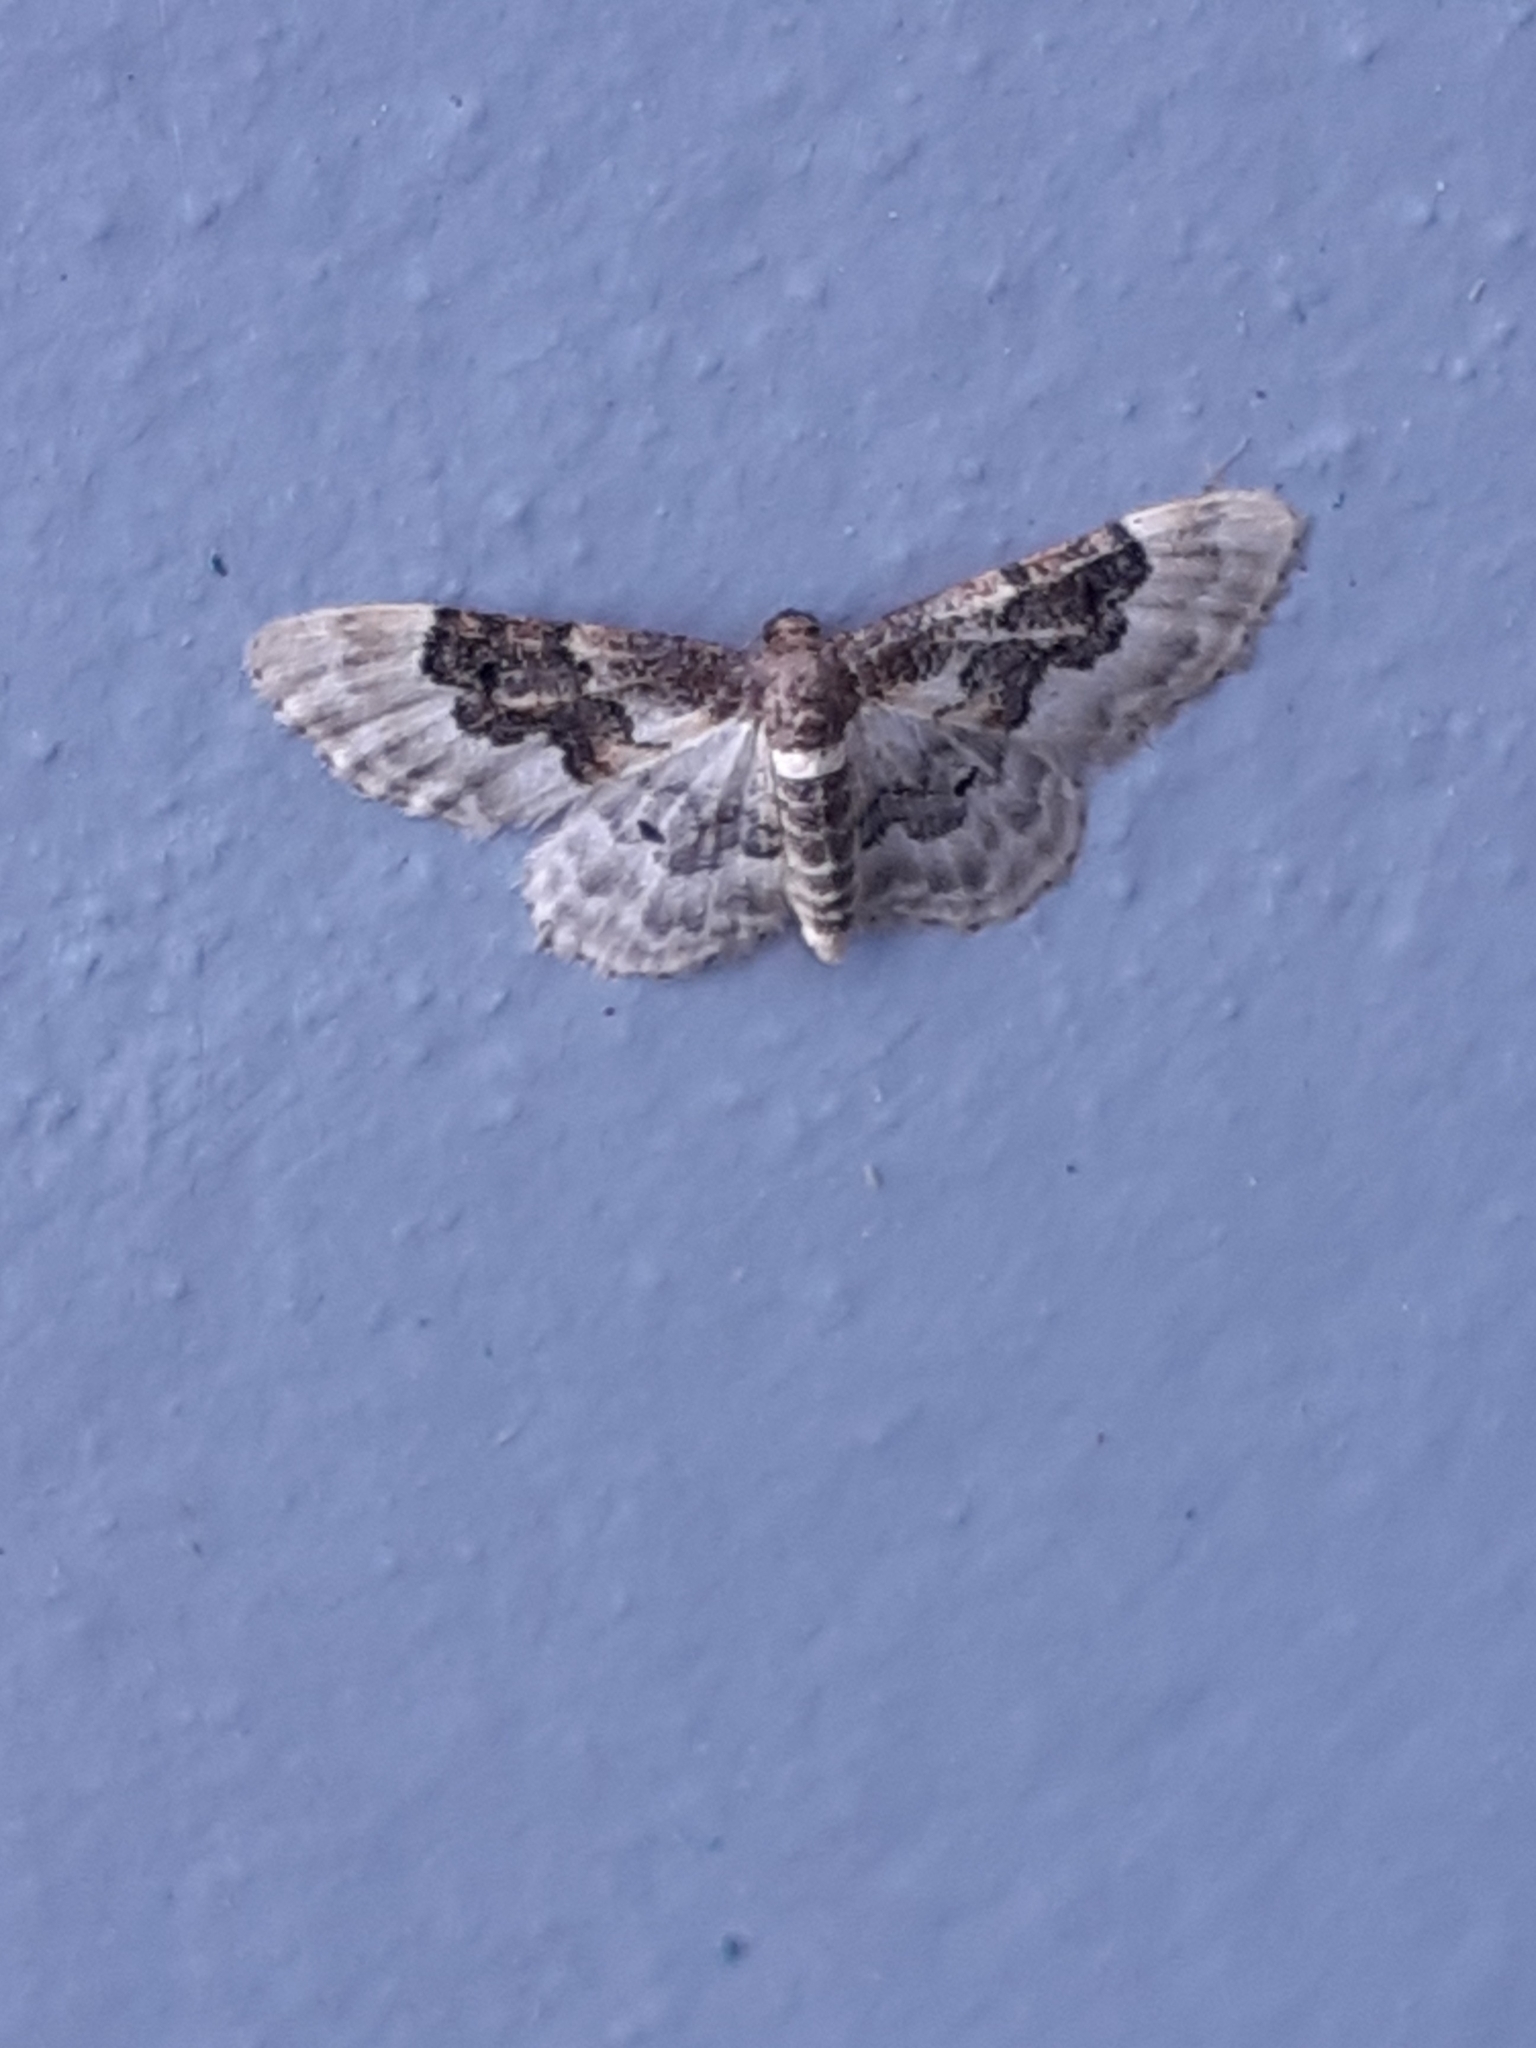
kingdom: Animalia
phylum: Arthropoda
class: Insecta
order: Lepidoptera
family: Geometridae
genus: Idaea
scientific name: Idaea rusticata
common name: Least carpet
